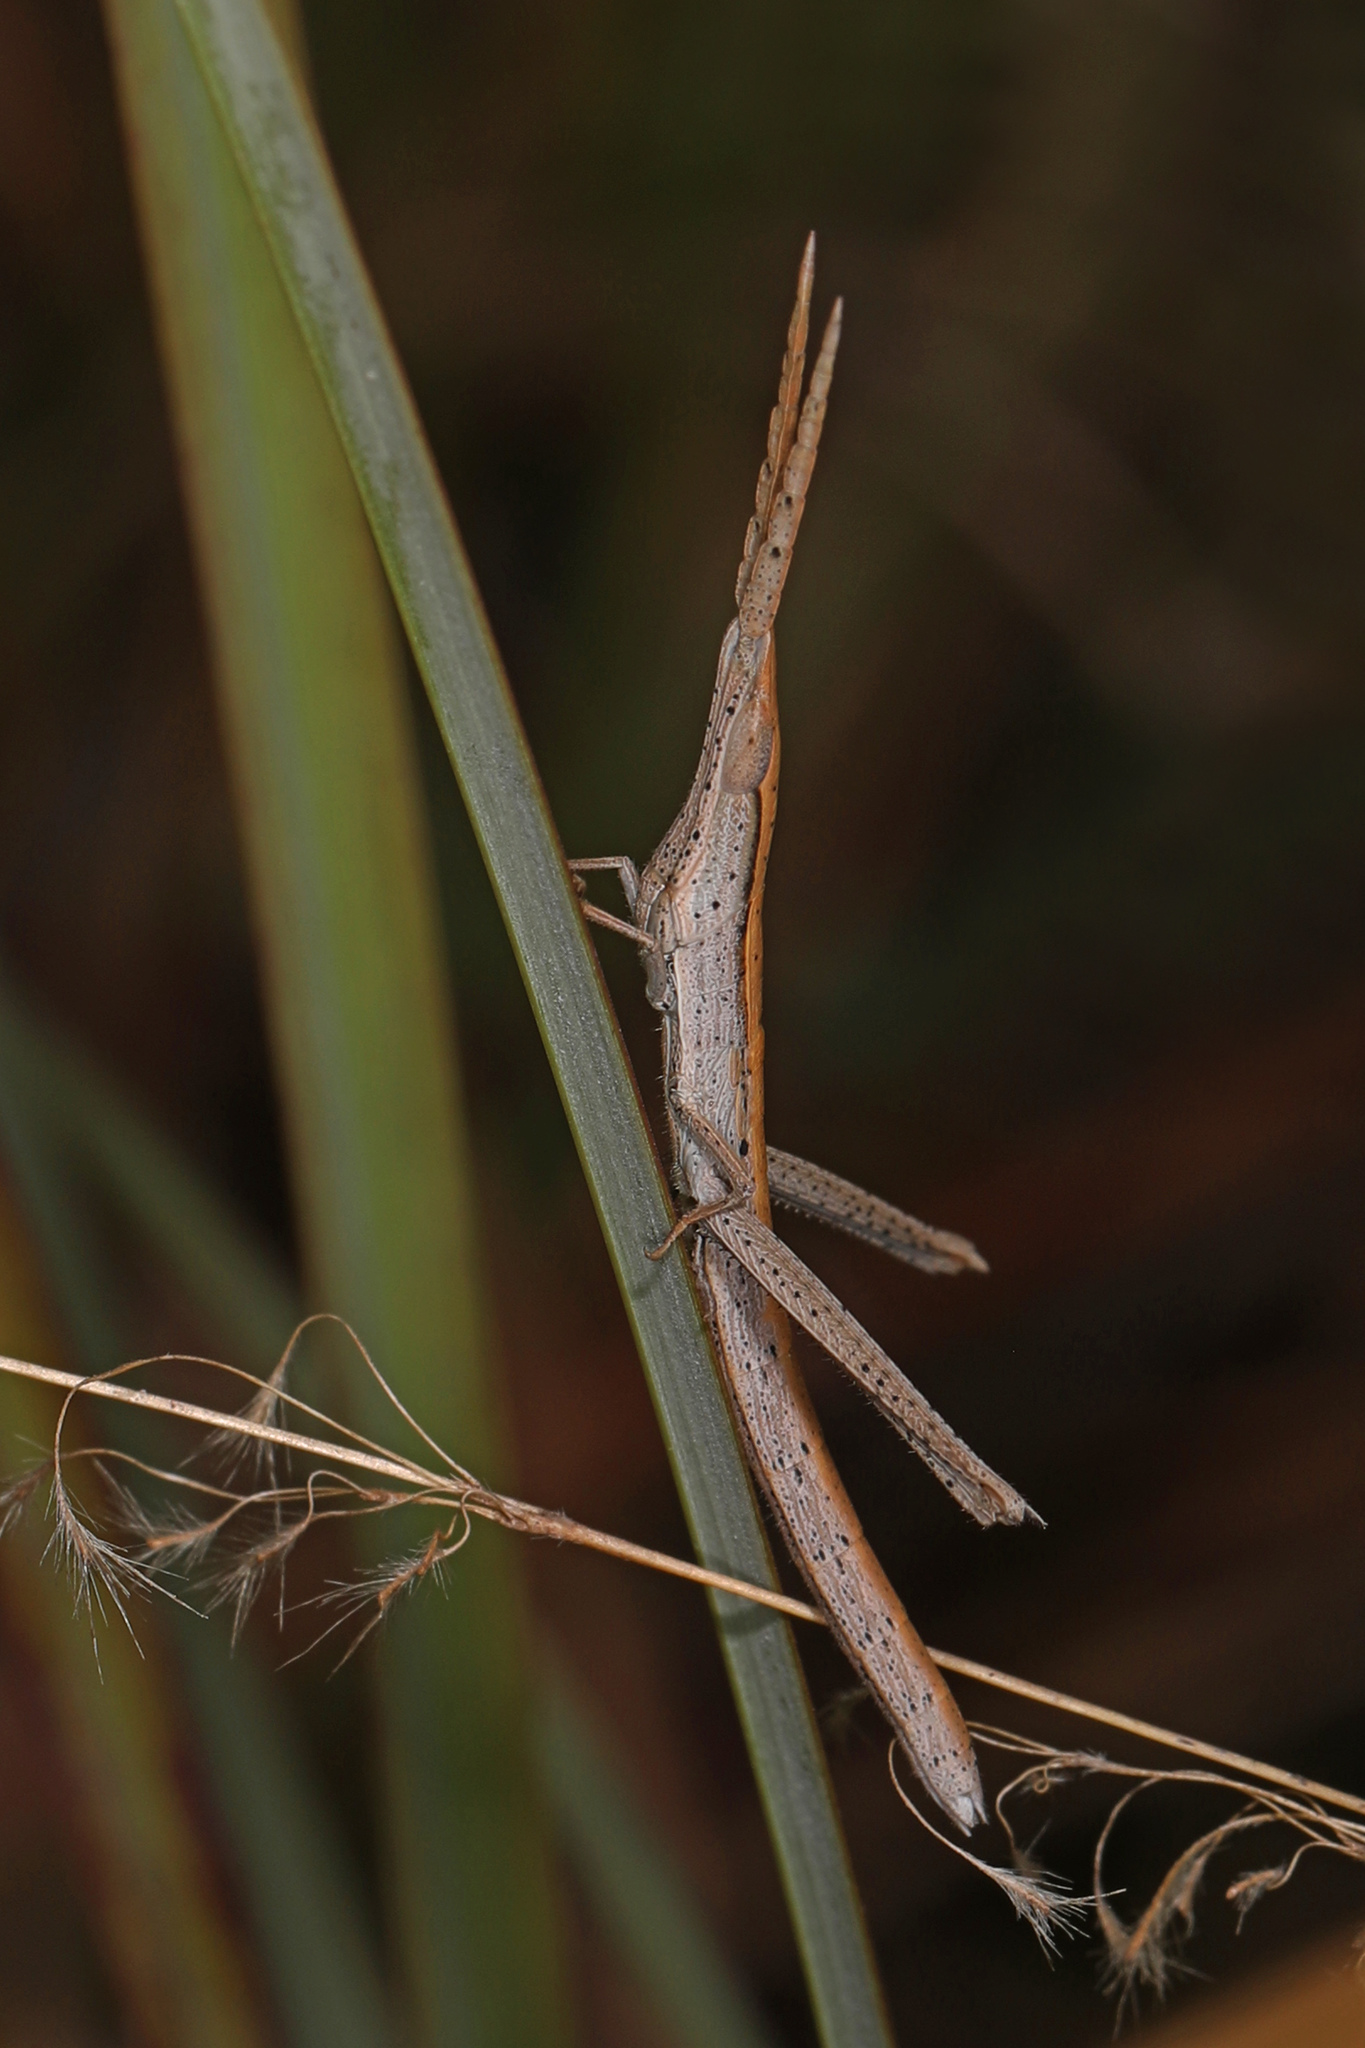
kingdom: Animalia
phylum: Arthropoda
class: Insecta
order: Orthoptera
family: Acrididae
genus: Achurum
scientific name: Achurum carinatum
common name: Long-headed toothpick grasshopper
